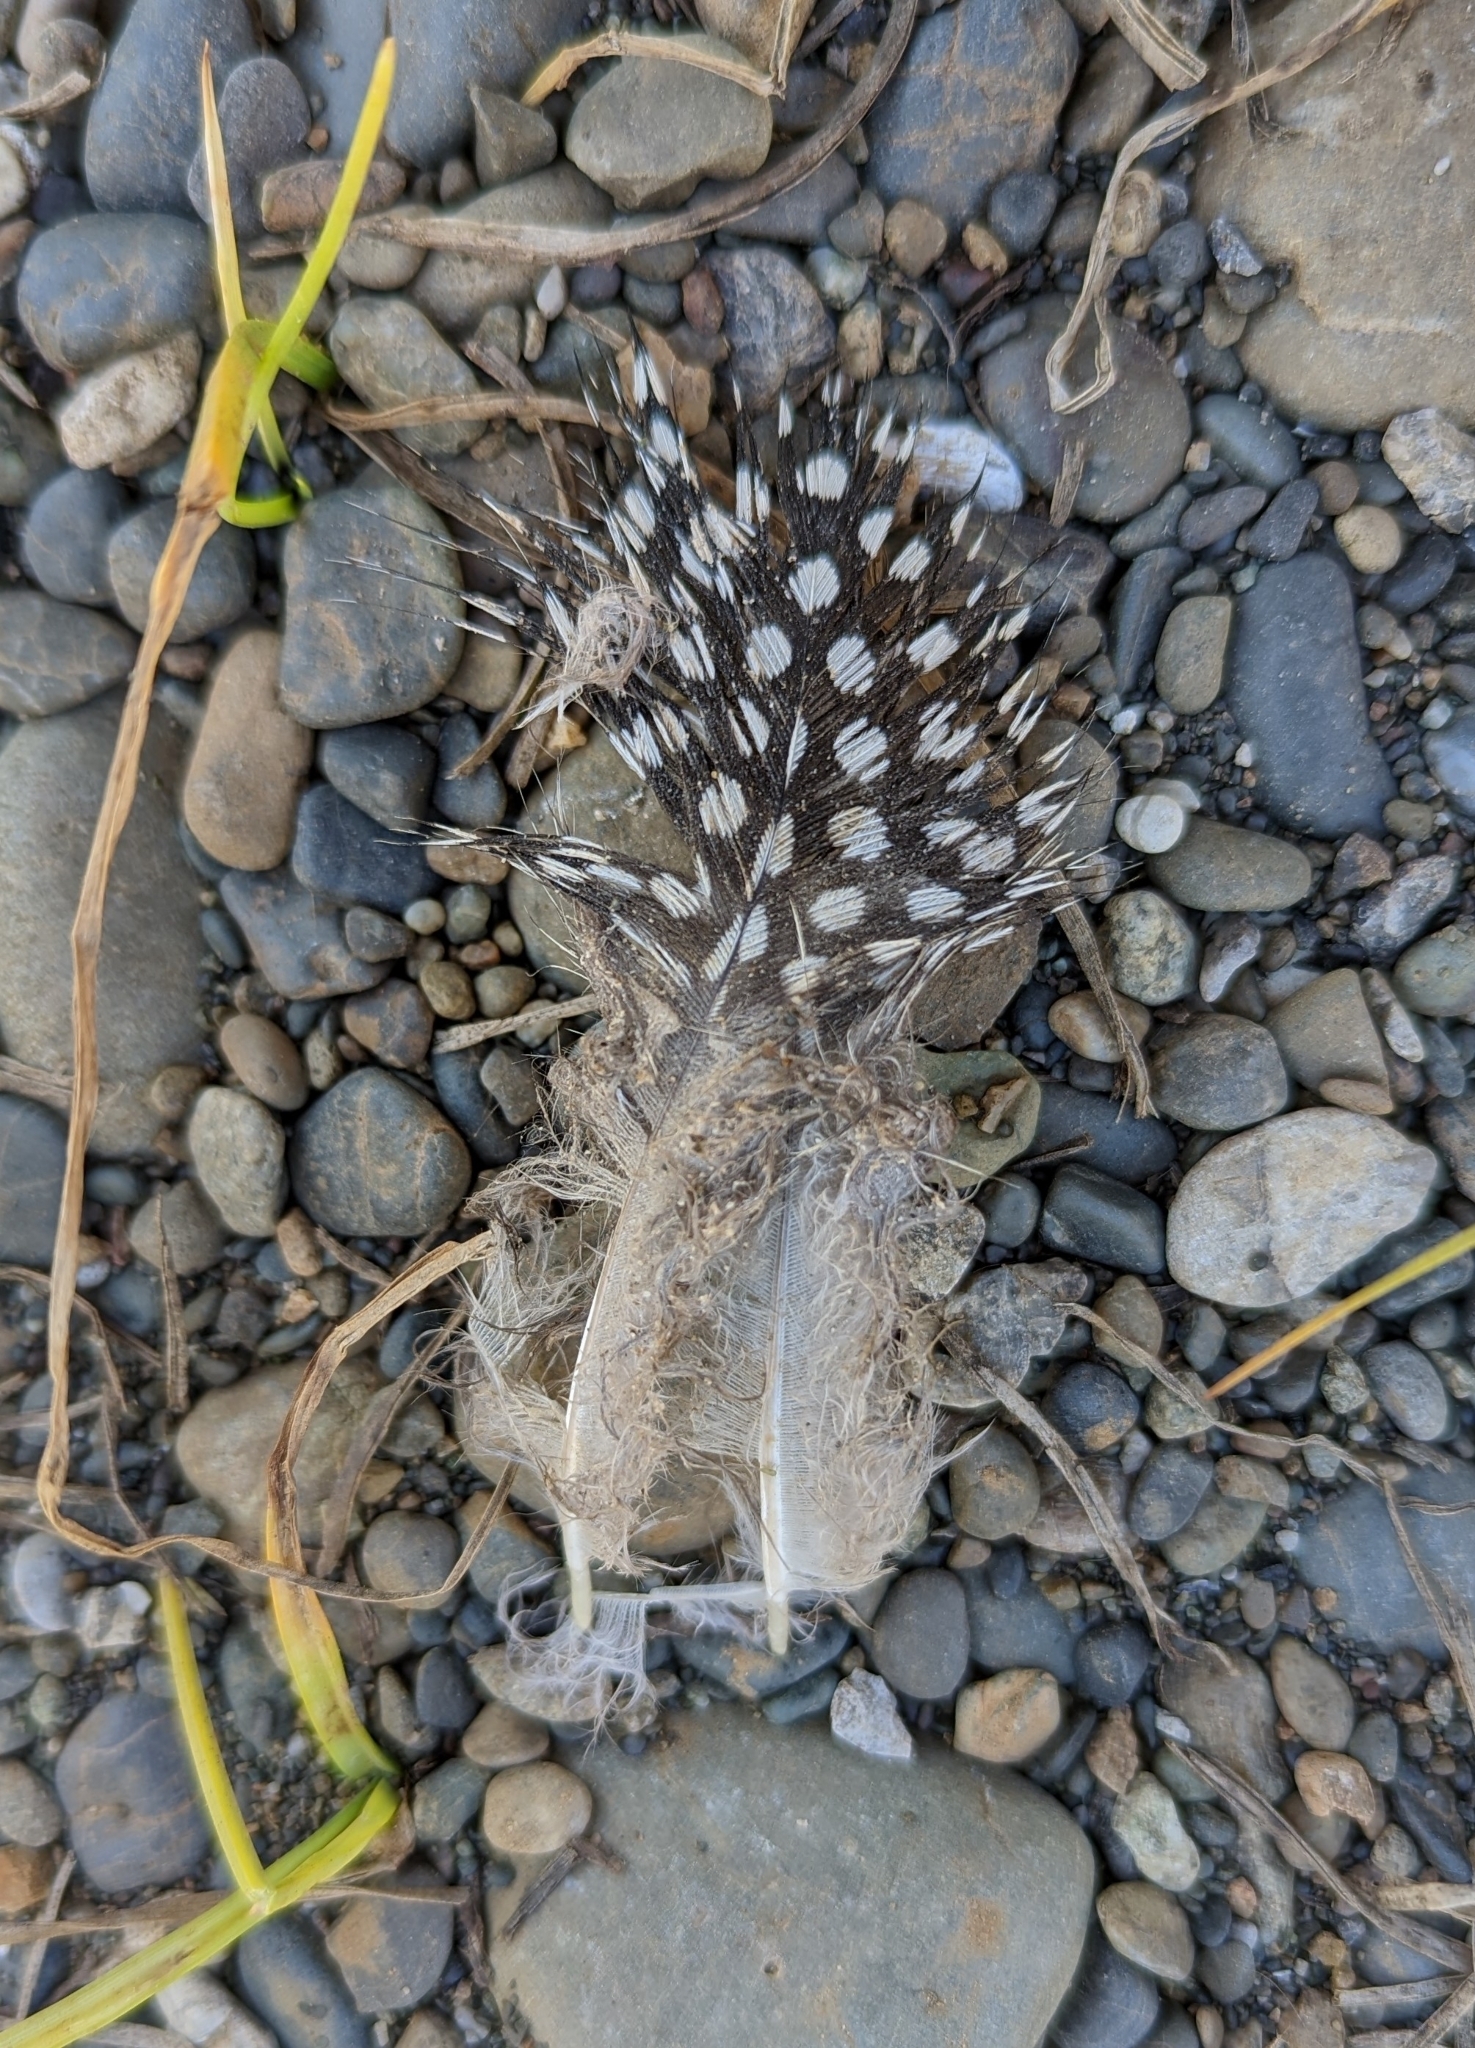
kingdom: Animalia
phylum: Chordata
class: Aves
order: Galliformes
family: Numididae
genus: Numida
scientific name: Numida meleagris
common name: Helmeted guineafowl
